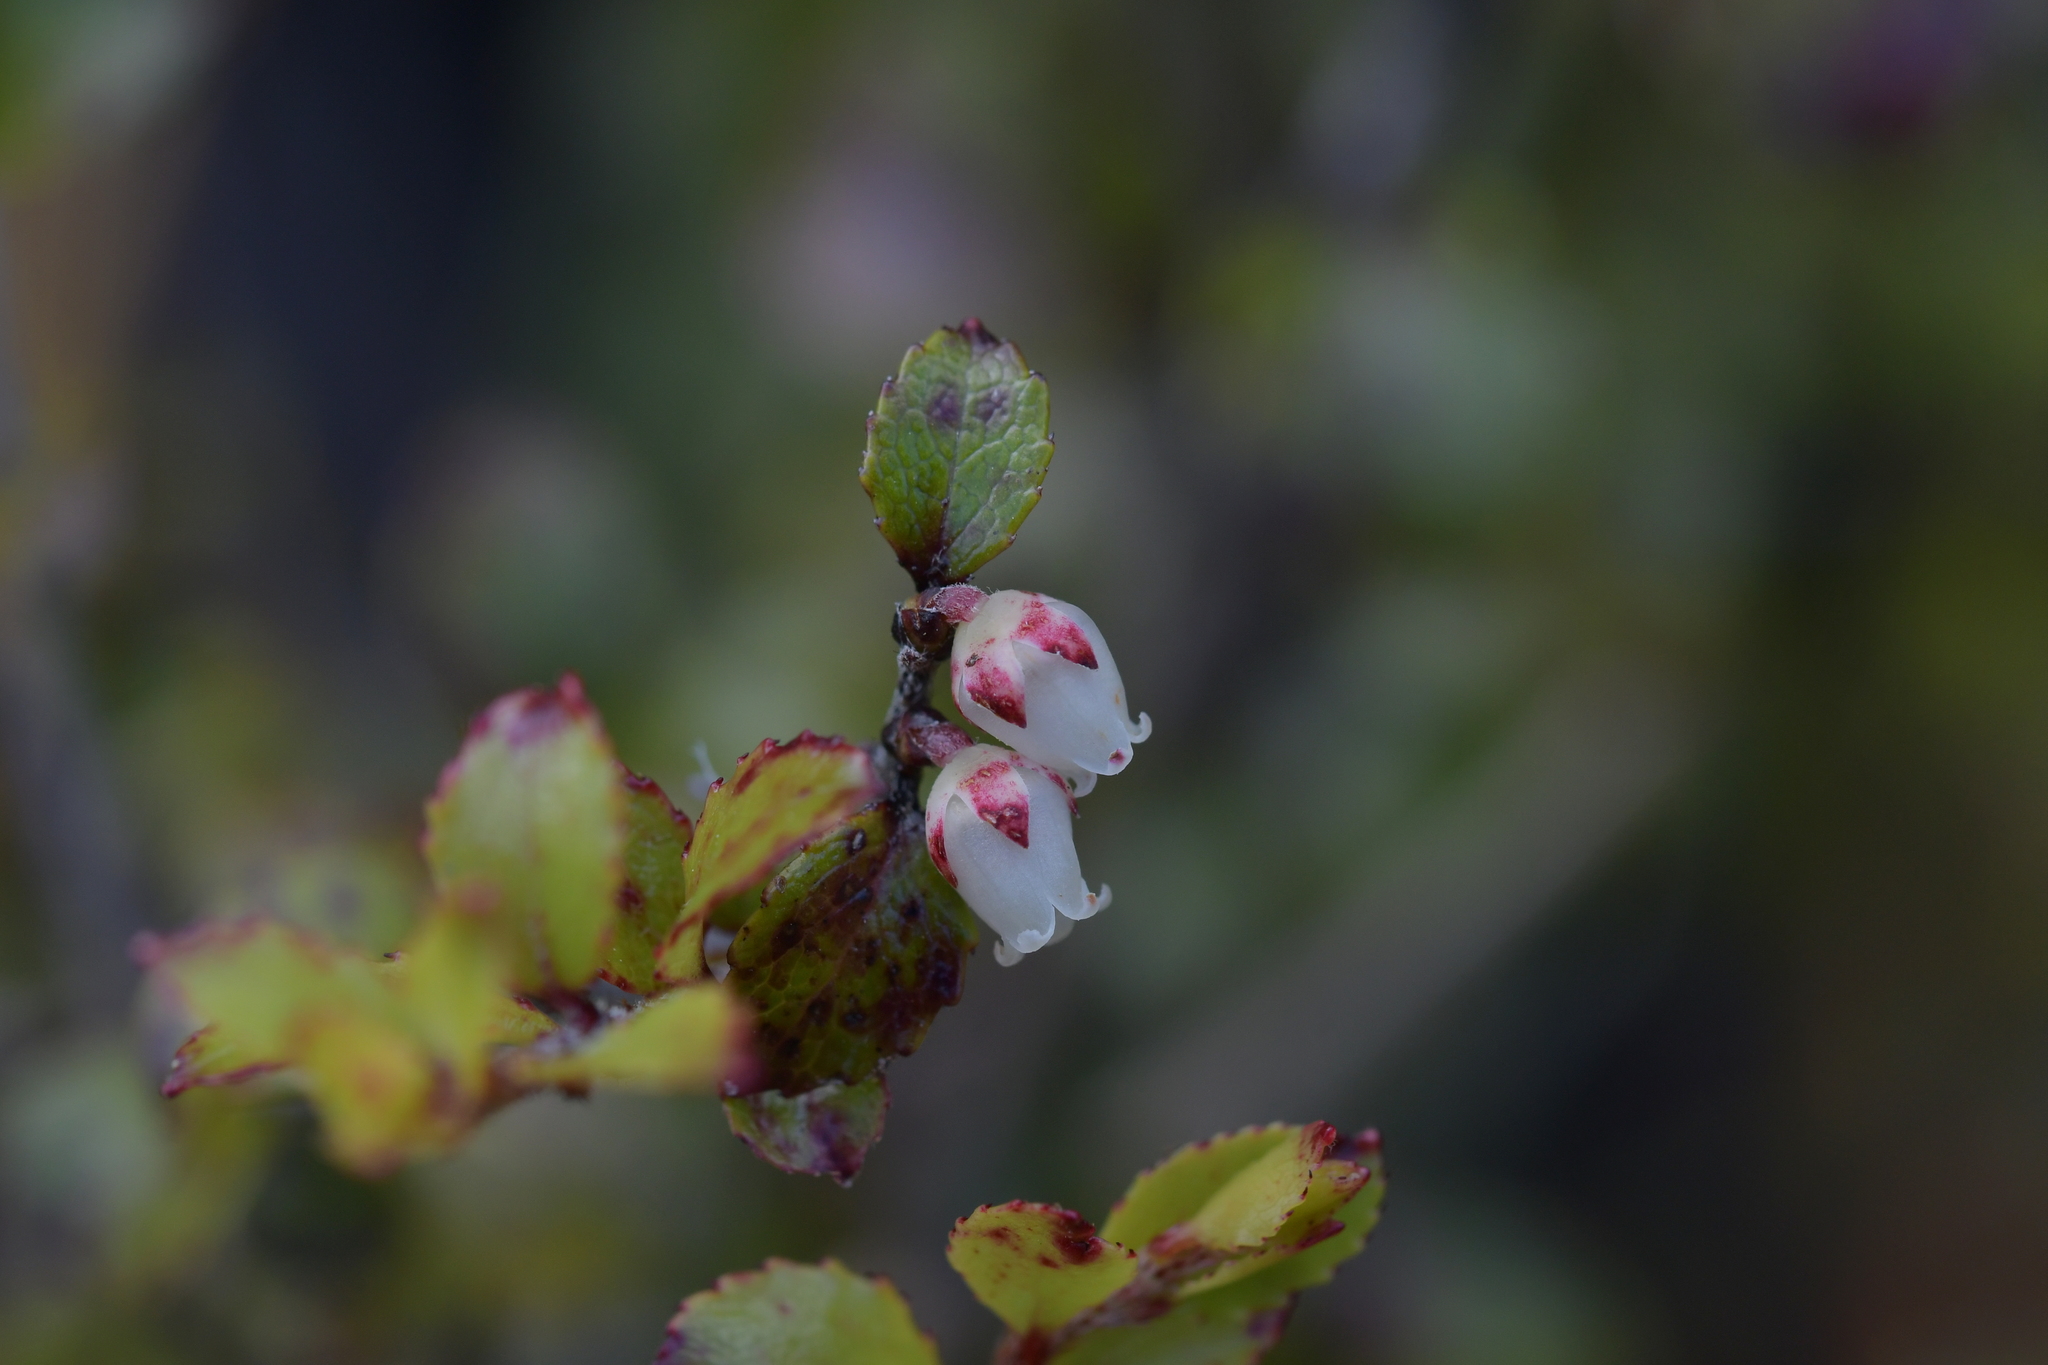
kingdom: Plantae
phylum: Tracheophyta
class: Magnoliopsida
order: Ericales
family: Ericaceae
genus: Gaultheria
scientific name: Gaultheria depressa
